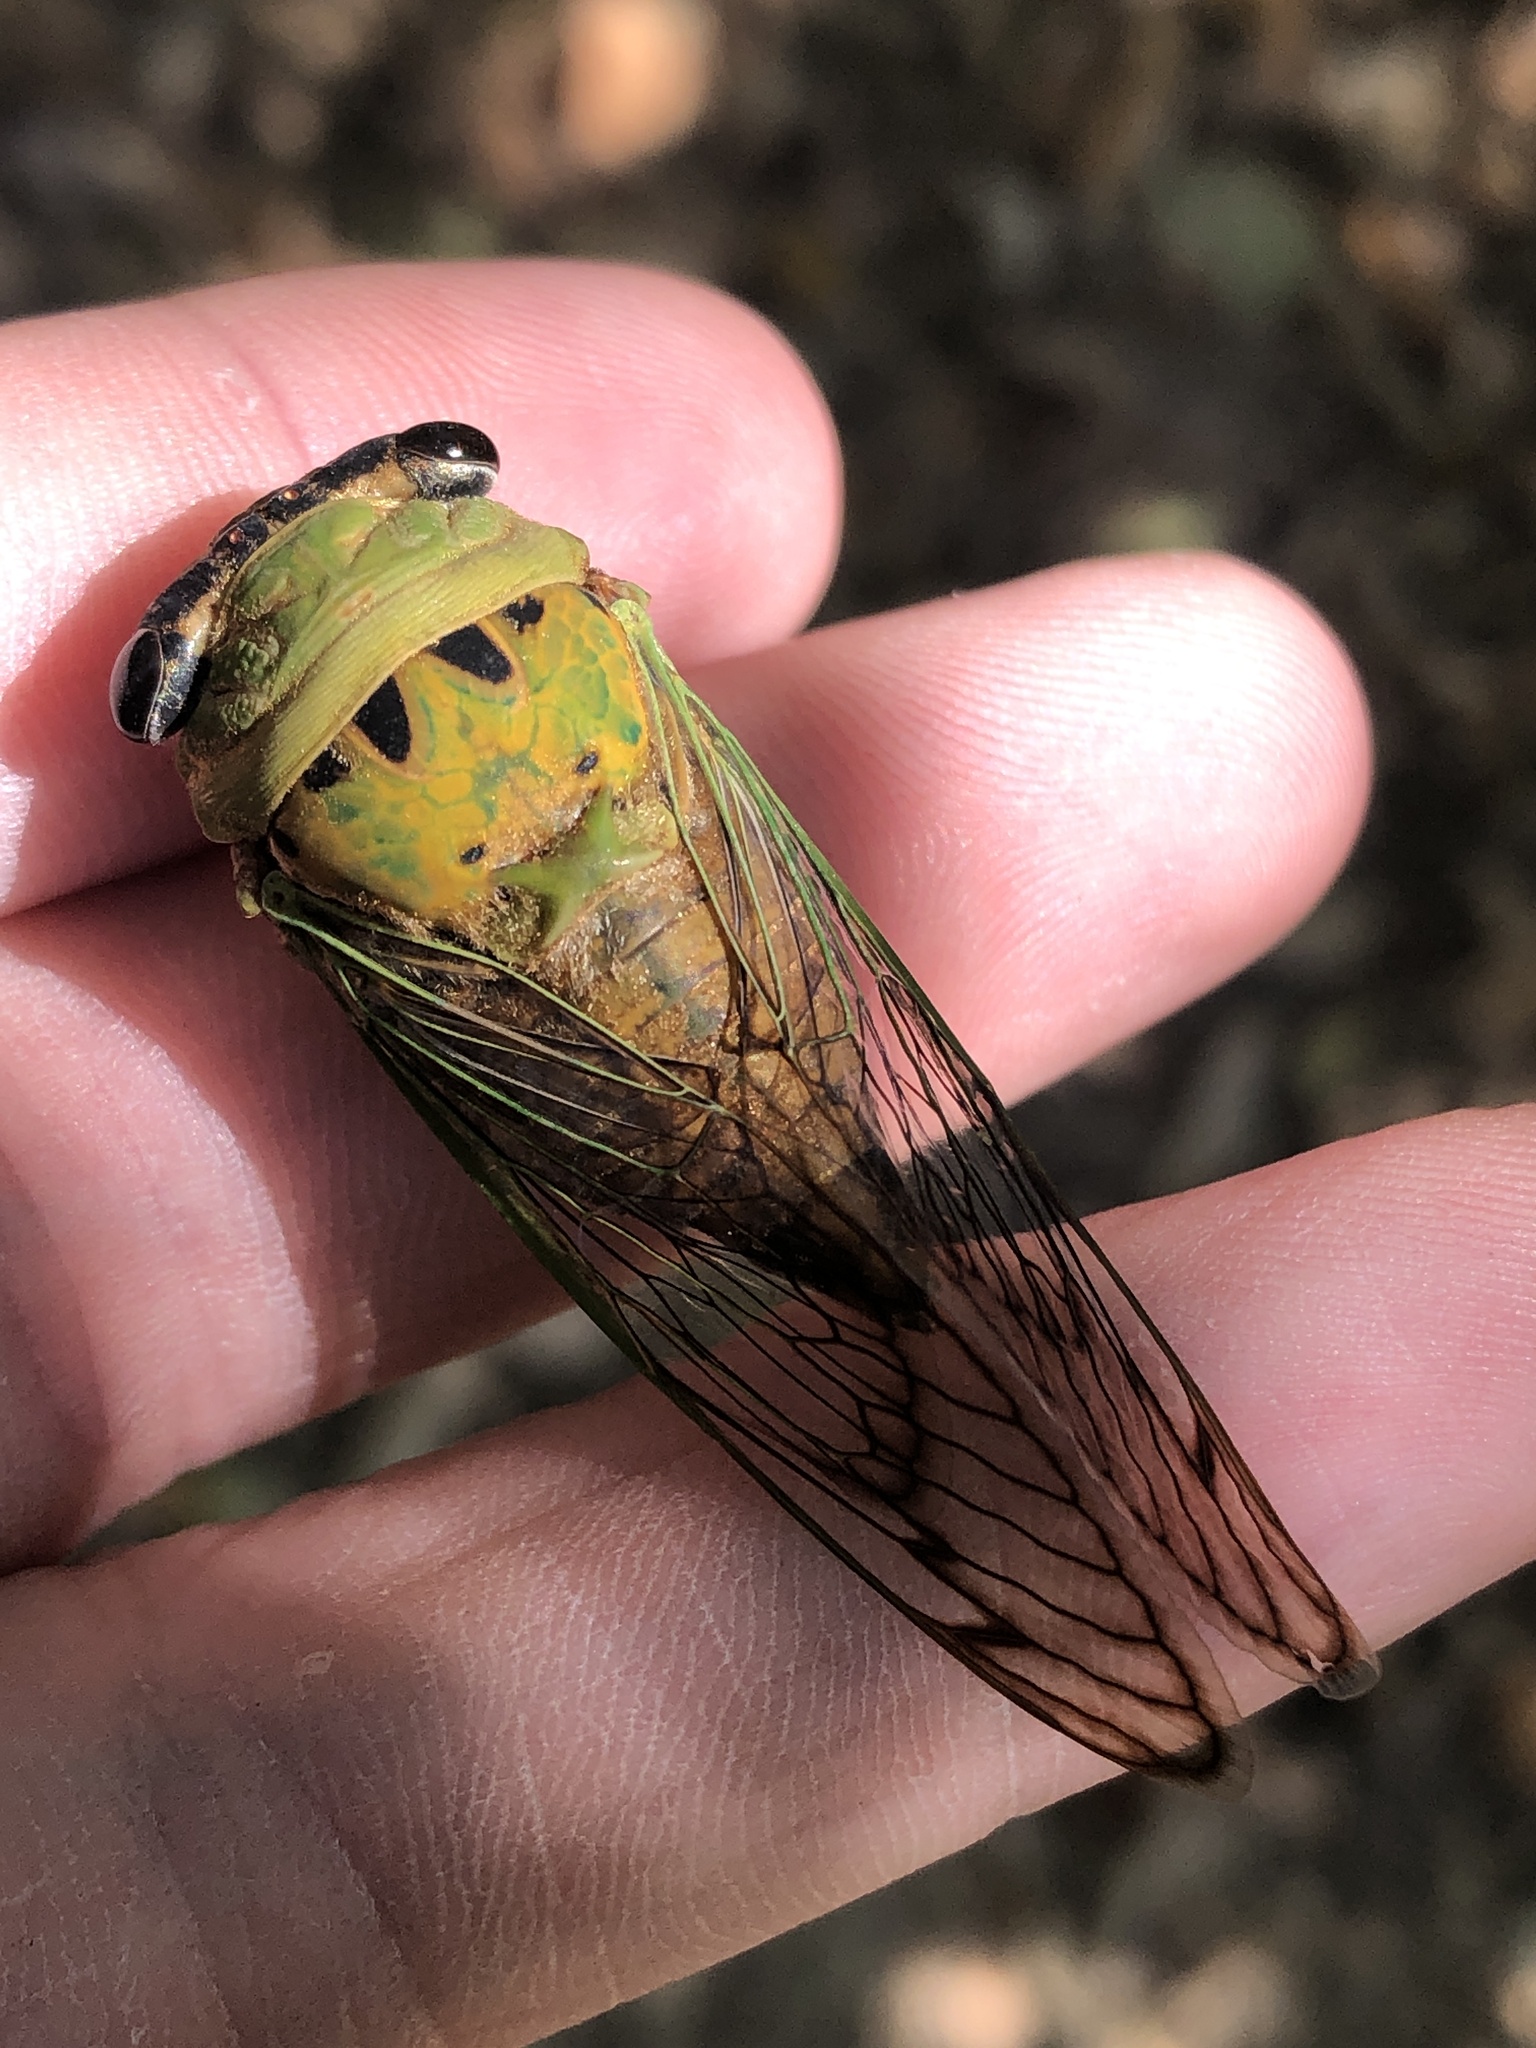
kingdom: Animalia
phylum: Arthropoda
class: Insecta
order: Hemiptera
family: Cicadidae
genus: Neotibicen
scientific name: Neotibicen superbus
